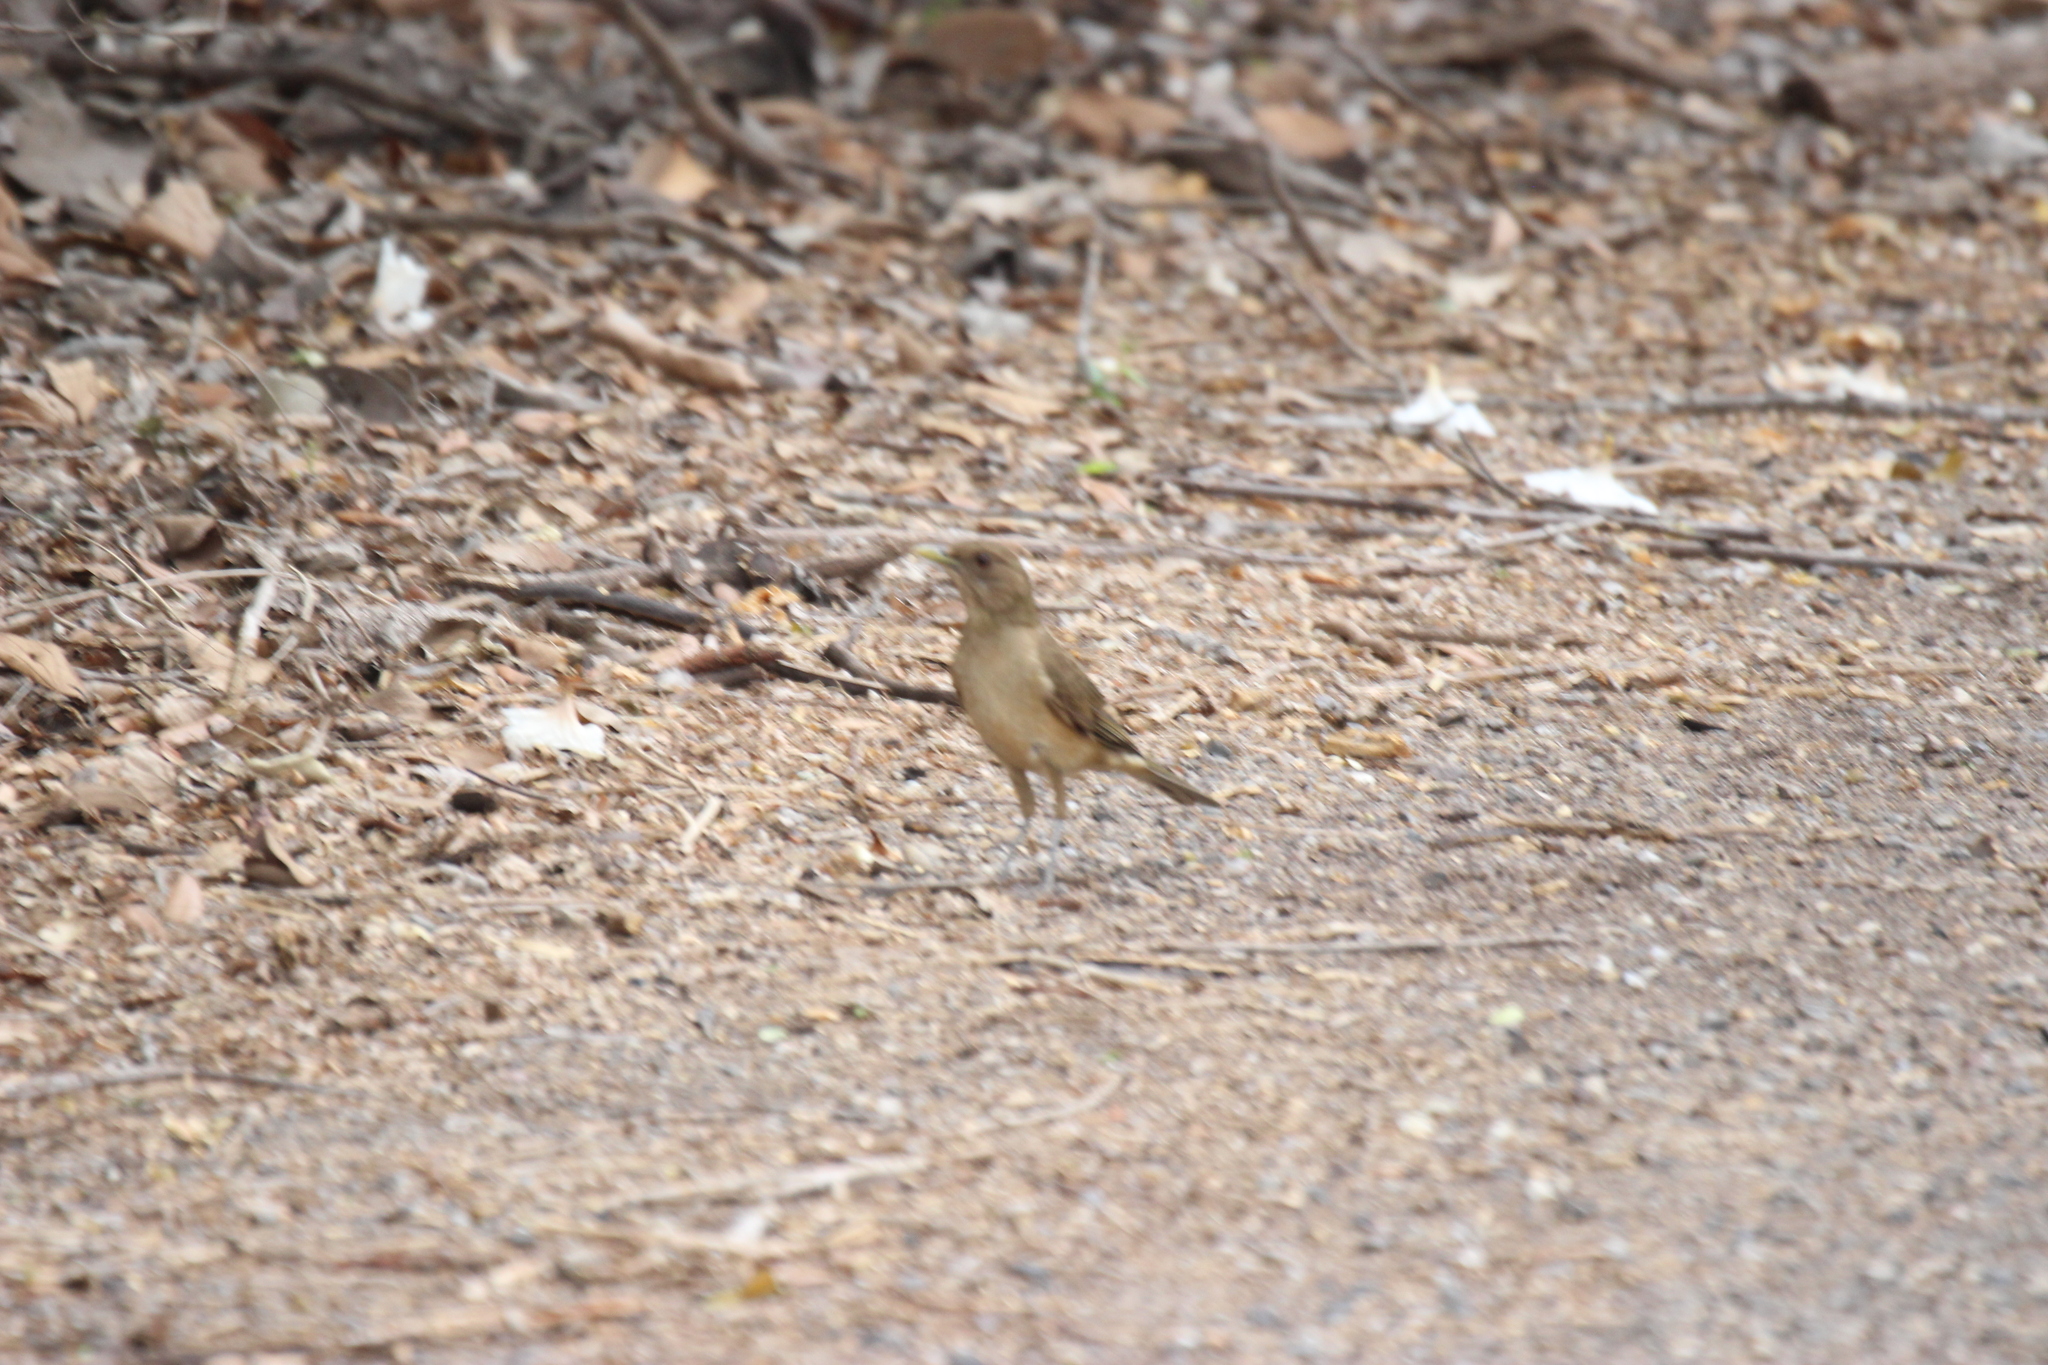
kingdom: Animalia
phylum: Chordata
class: Aves
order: Passeriformes
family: Turdidae
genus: Turdus
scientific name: Turdus grayi
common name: Clay-colored thrush
